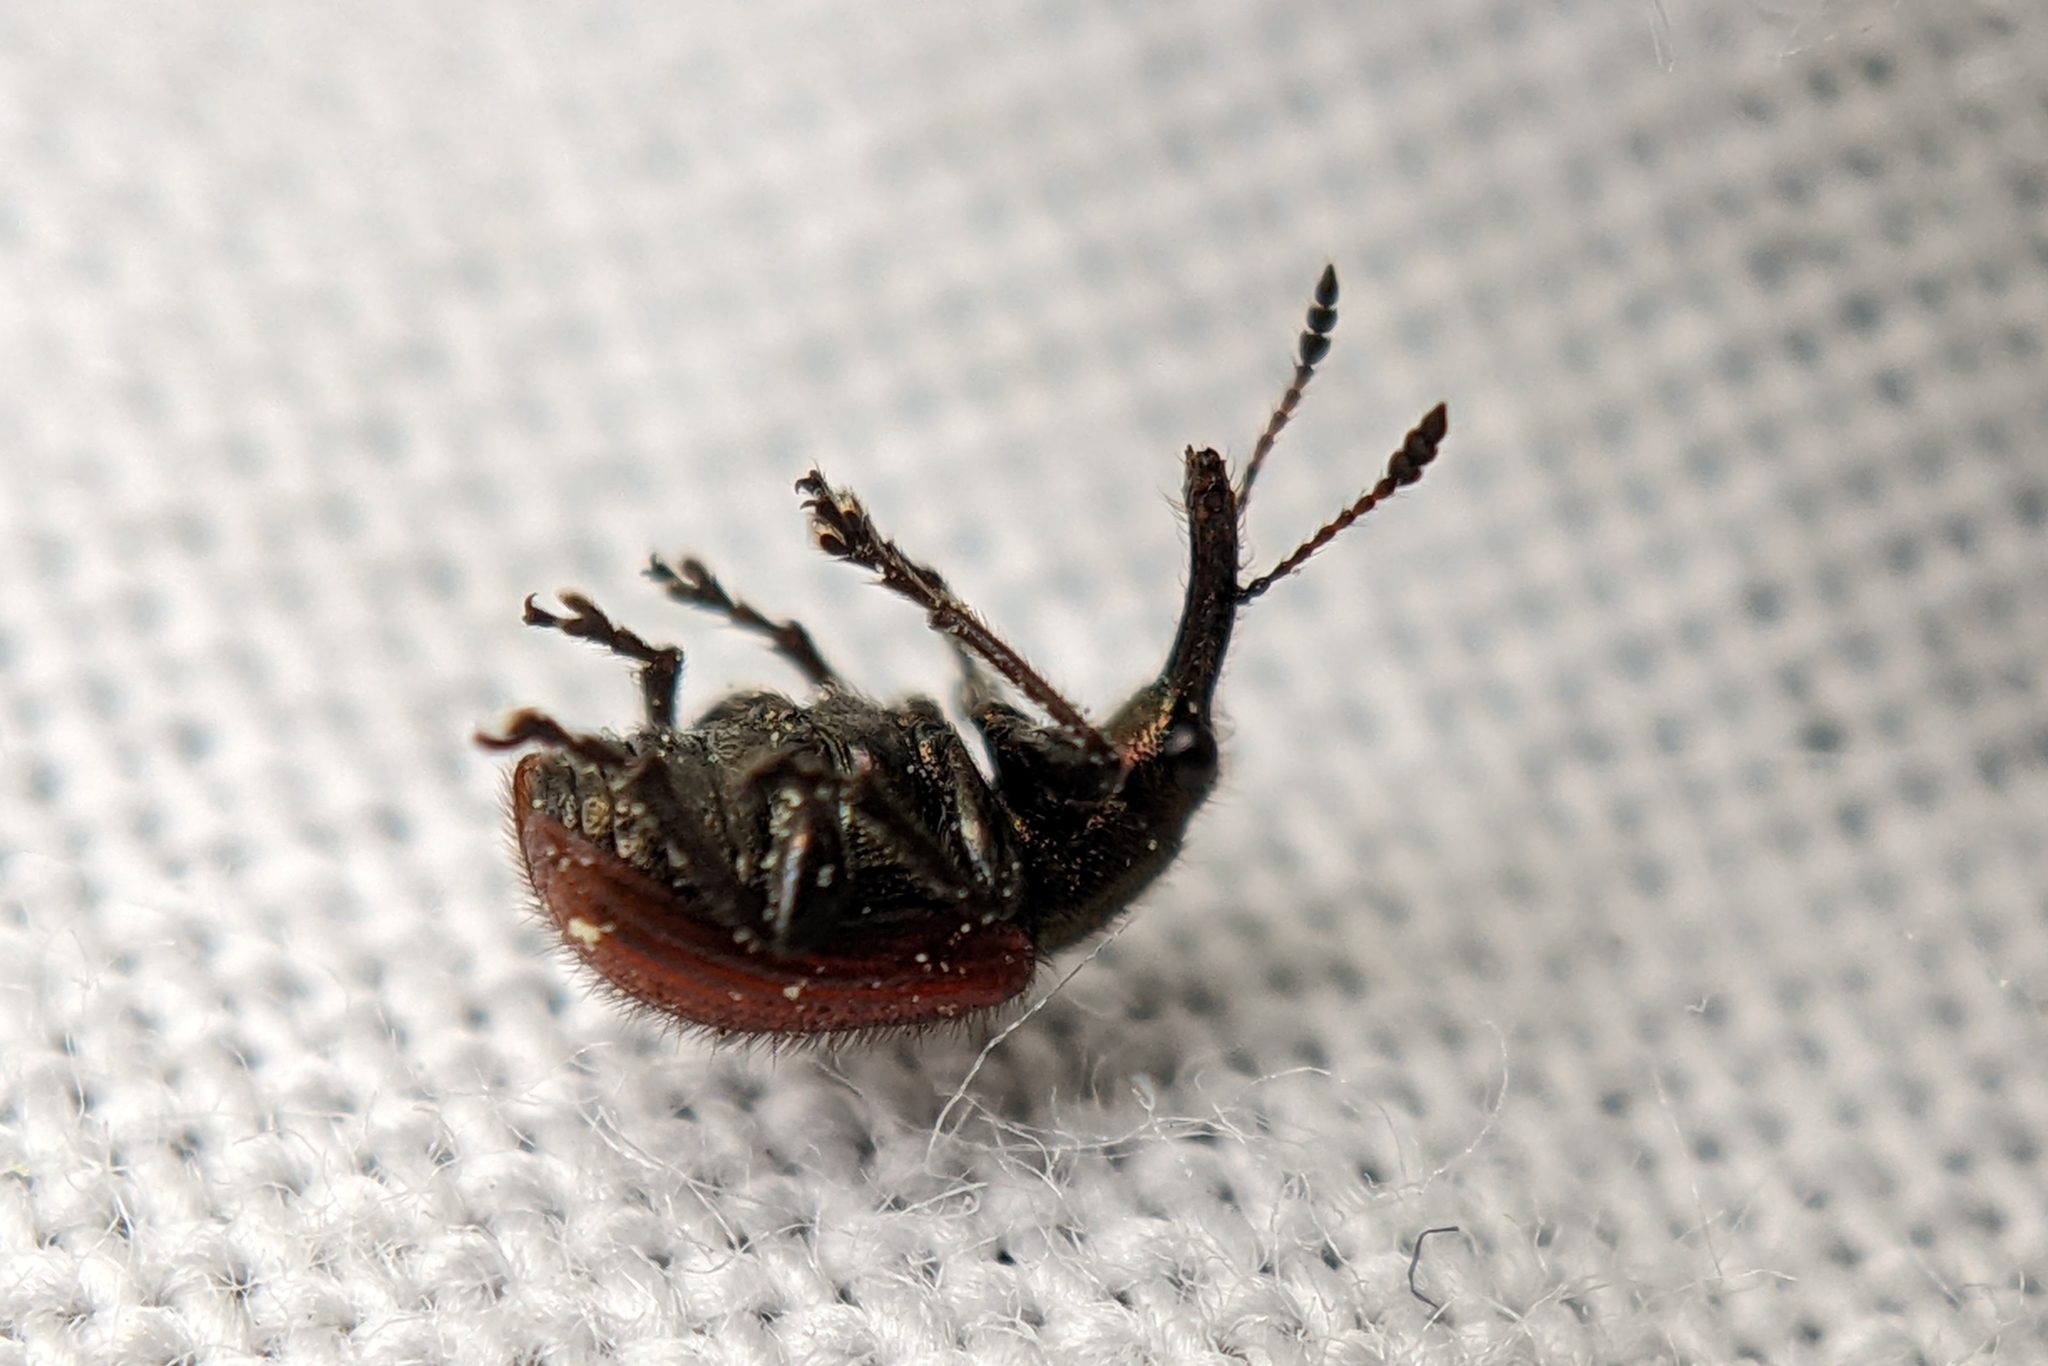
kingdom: Animalia
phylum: Arthropoda
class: Insecta
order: Coleoptera
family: Rhynchitidae
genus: Tatianaerhynchites
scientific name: Tatianaerhynchites aequatus
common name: Apple fruit rhynchites
